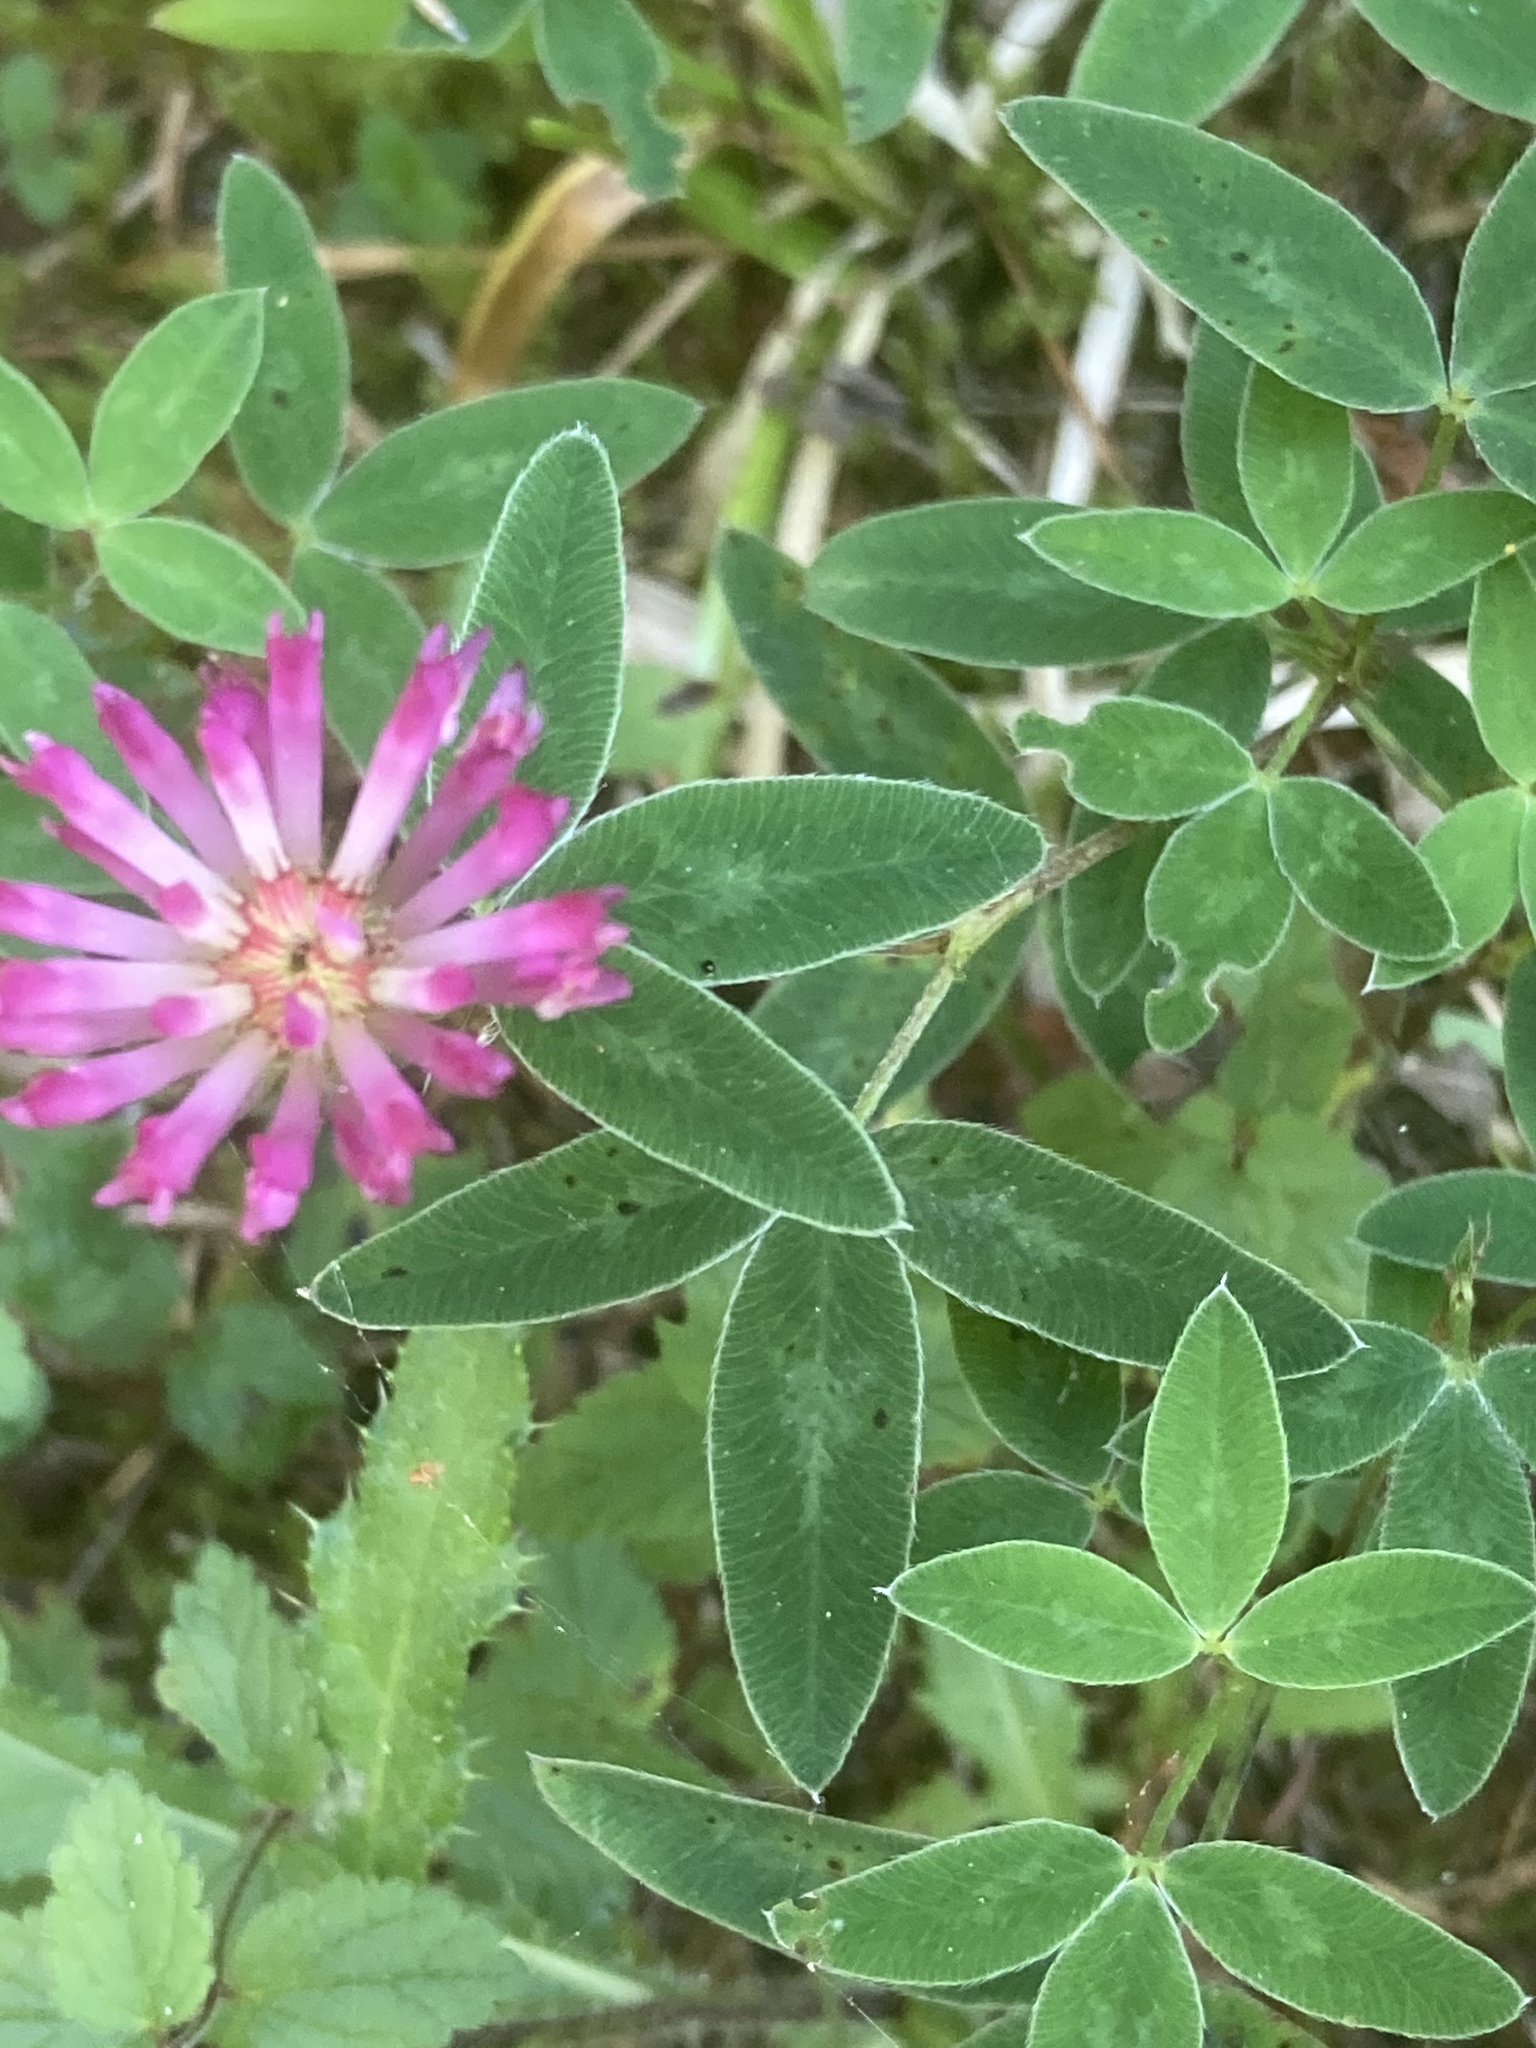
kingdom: Plantae
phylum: Tracheophyta
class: Magnoliopsida
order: Fabales
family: Fabaceae
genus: Trifolium
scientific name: Trifolium medium
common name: Zigzag clover
